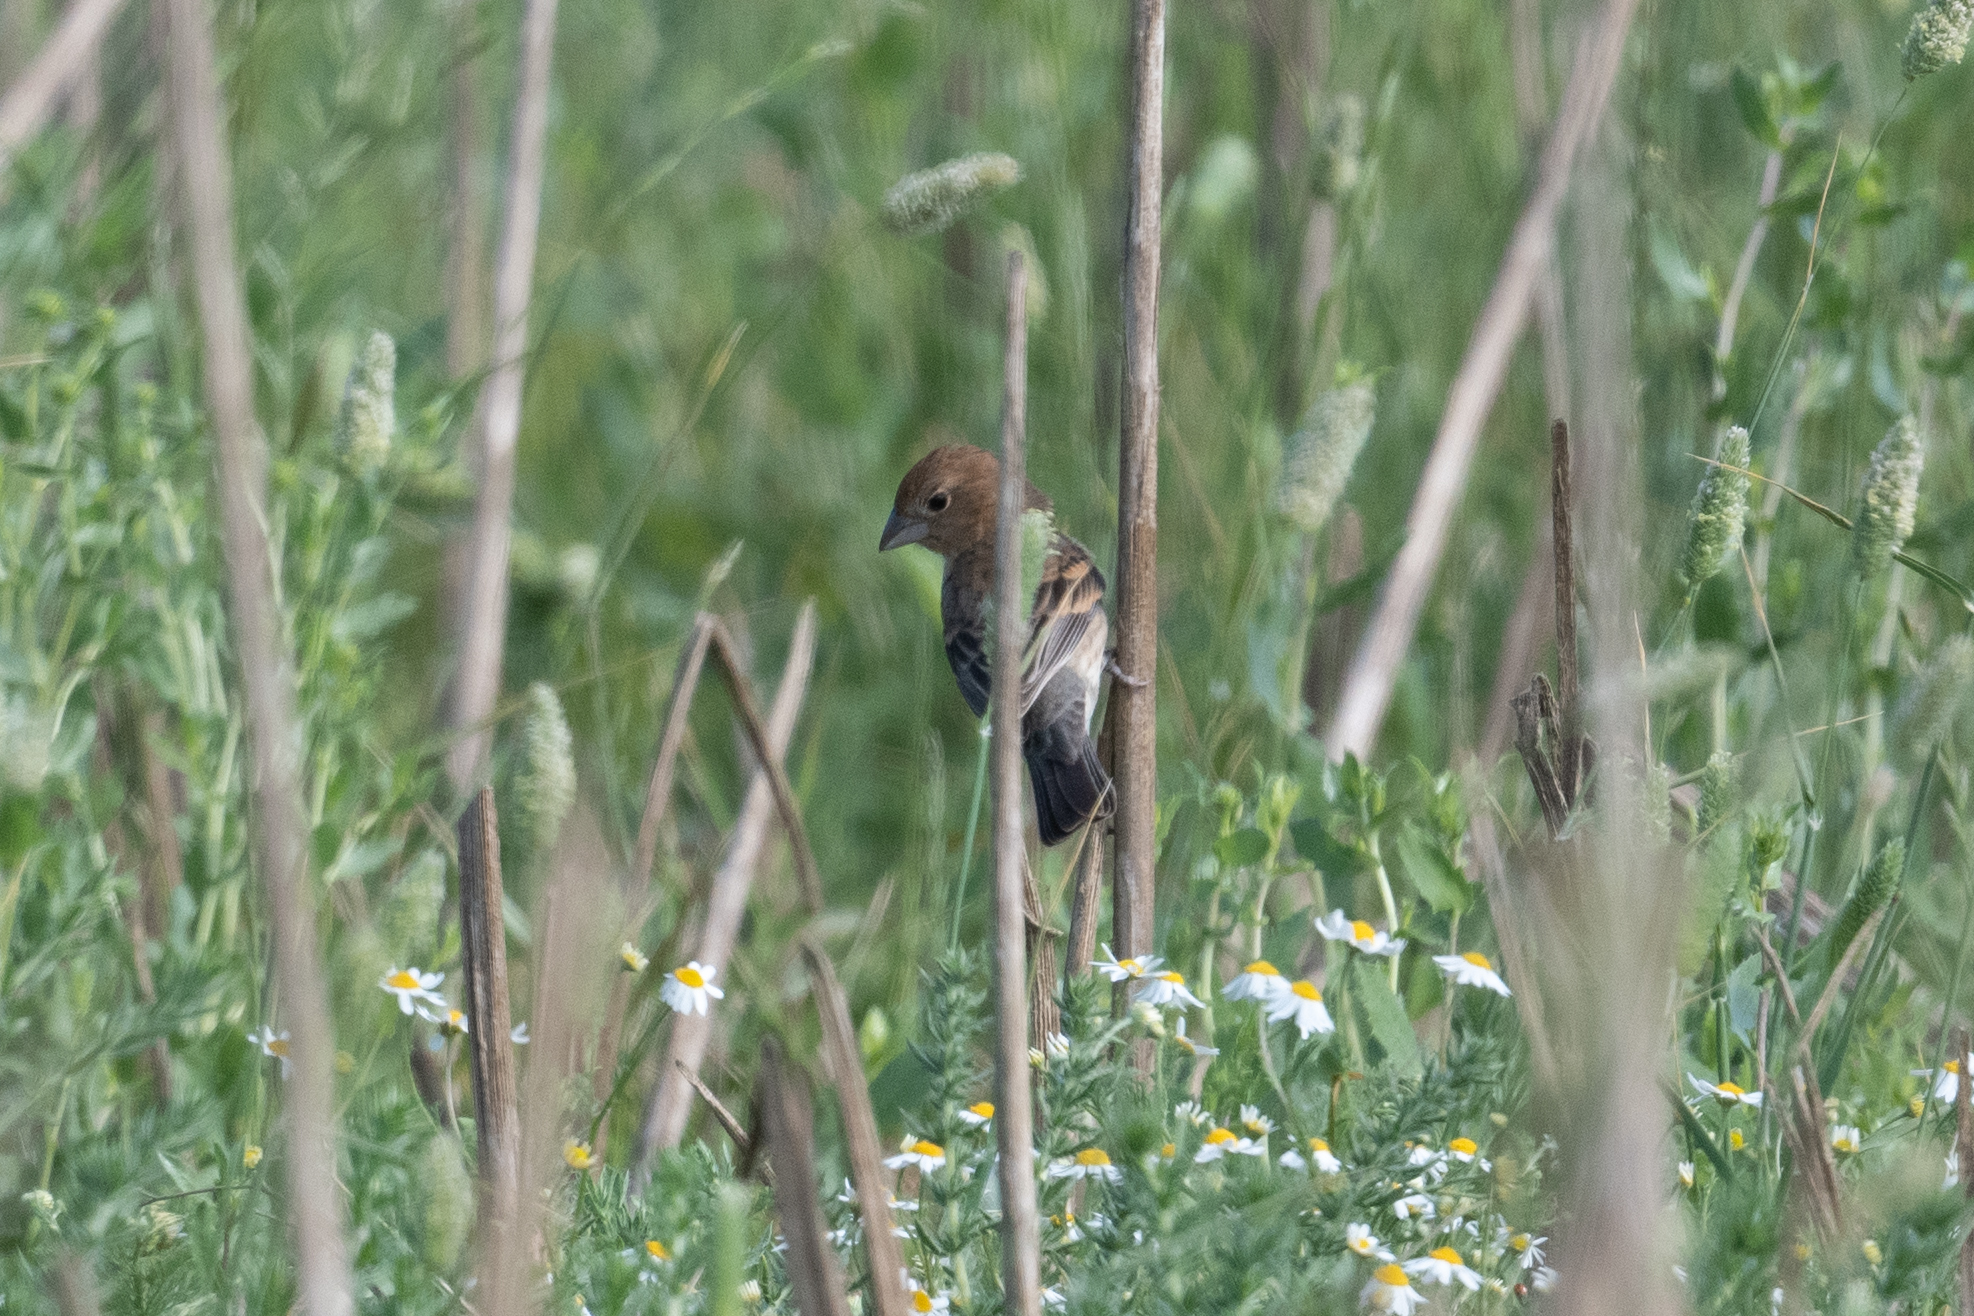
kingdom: Animalia
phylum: Chordata
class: Aves
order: Passeriformes
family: Cardinalidae
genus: Passerina
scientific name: Passerina caerulea
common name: Blue grosbeak
